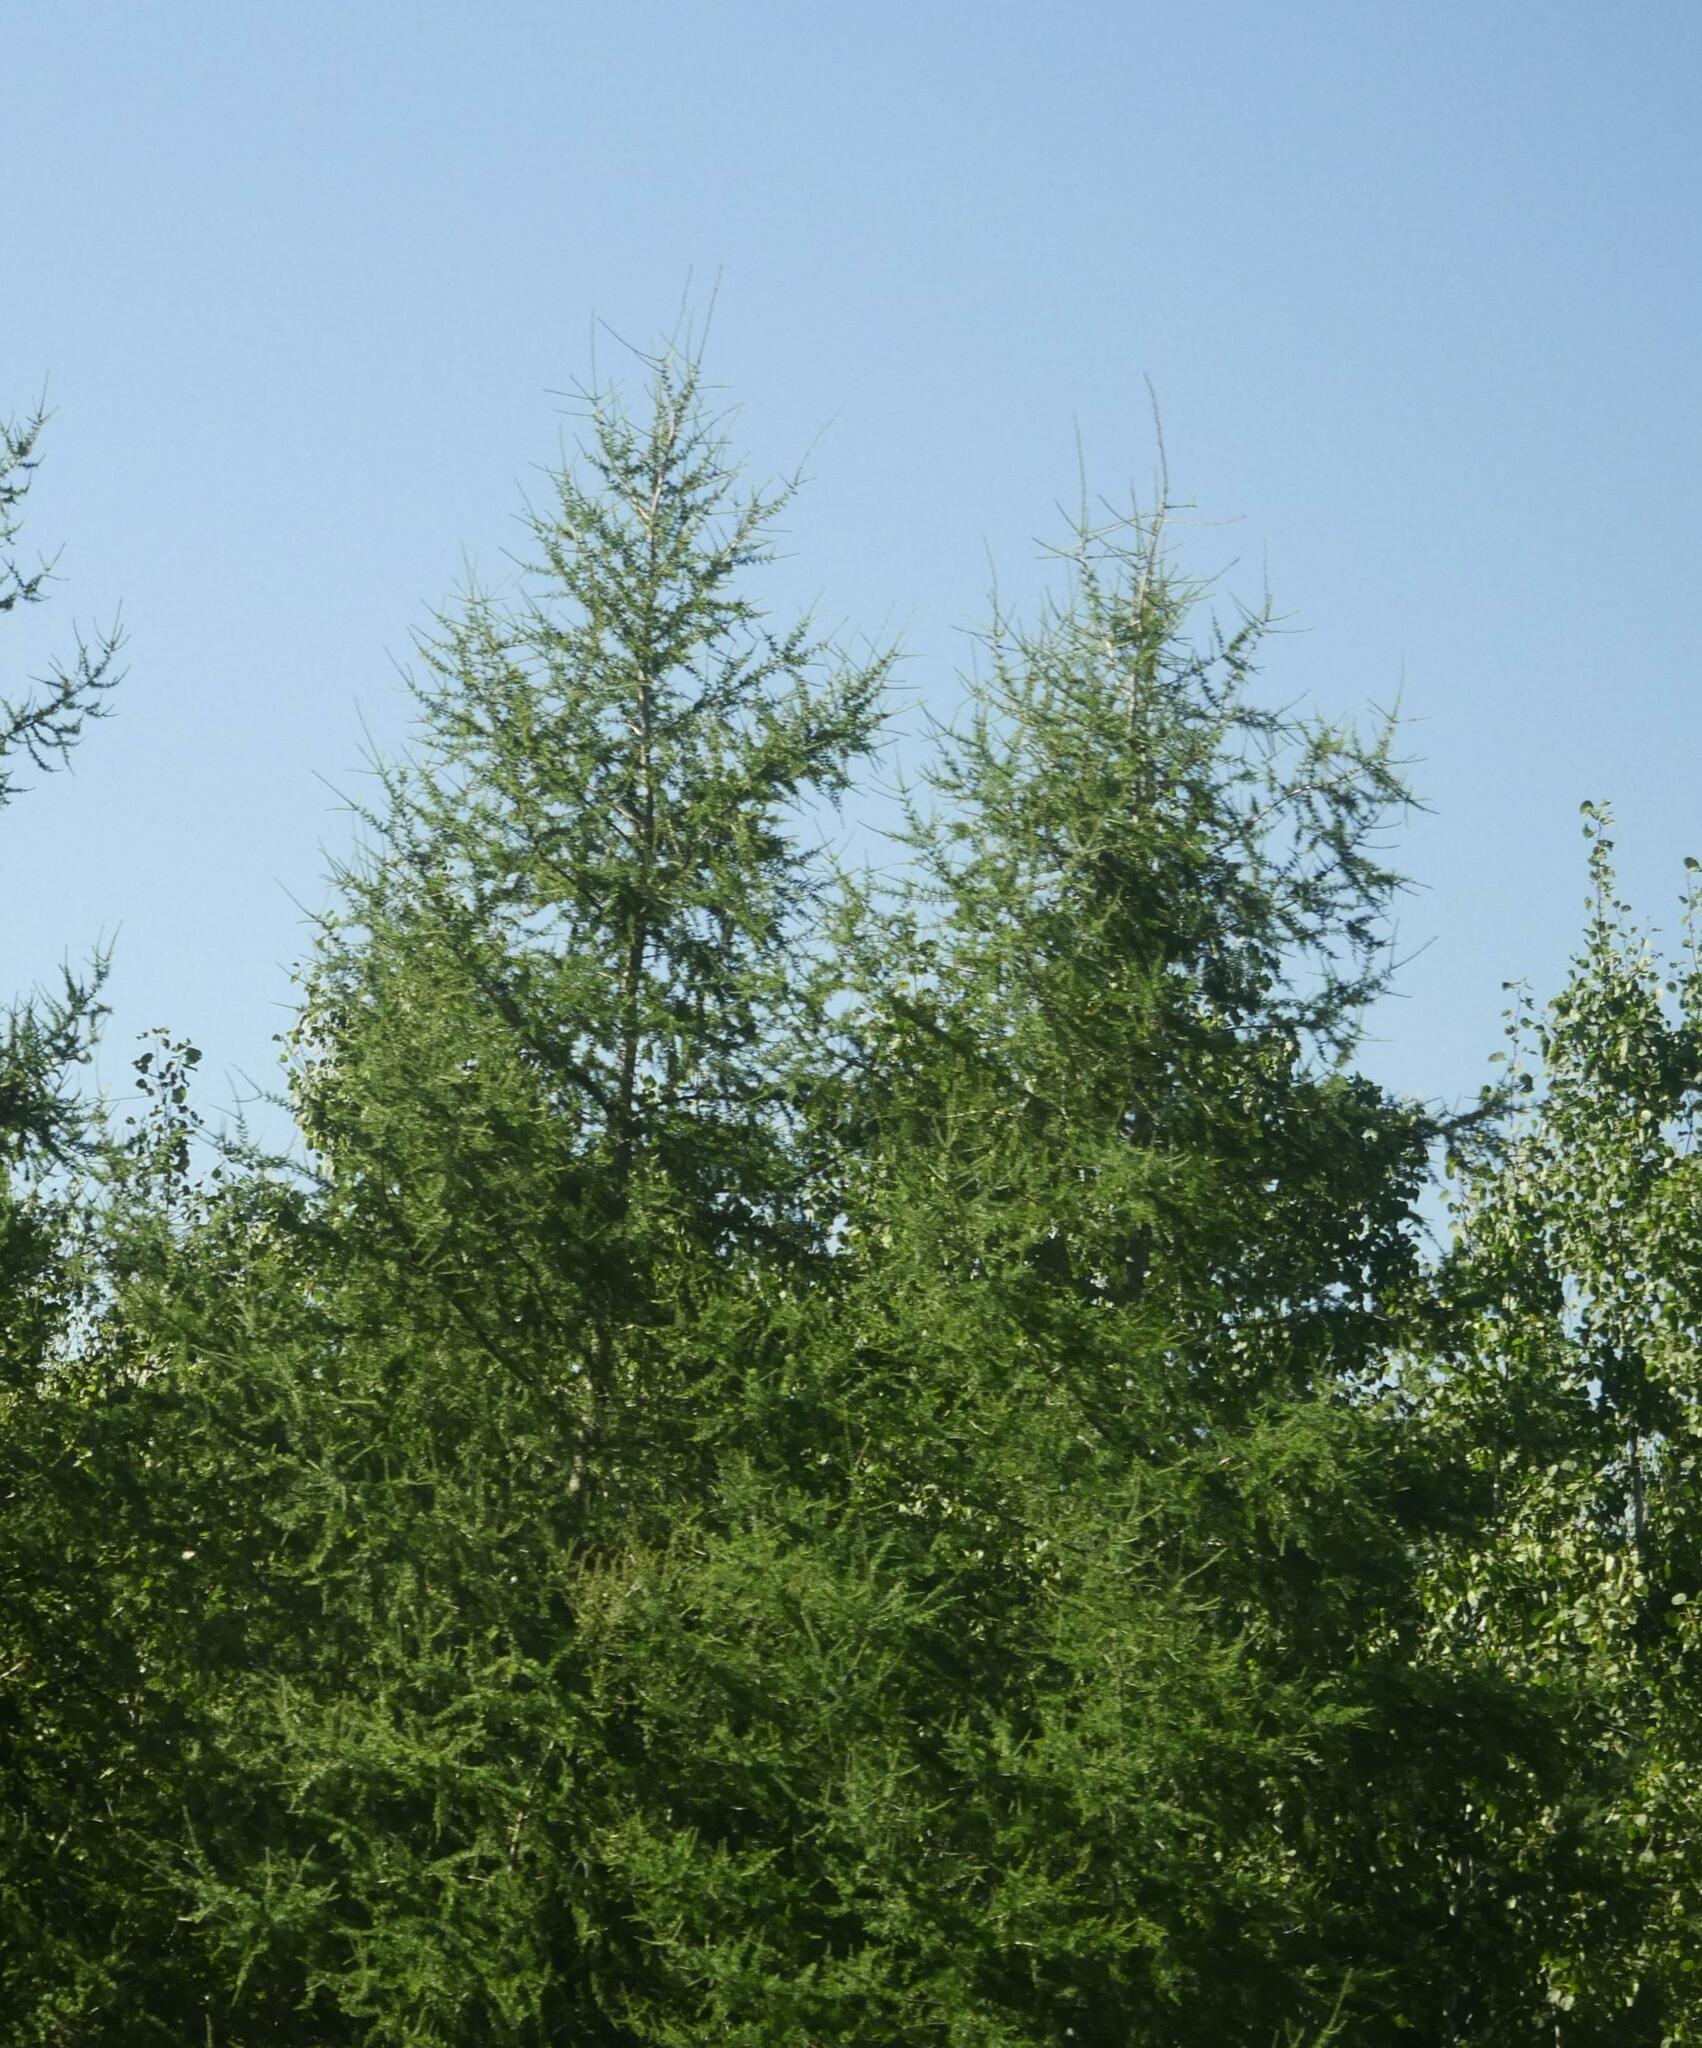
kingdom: Plantae
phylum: Tracheophyta
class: Pinopsida
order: Pinales
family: Pinaceae
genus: Larix
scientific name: Larix laricina
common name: American larch
